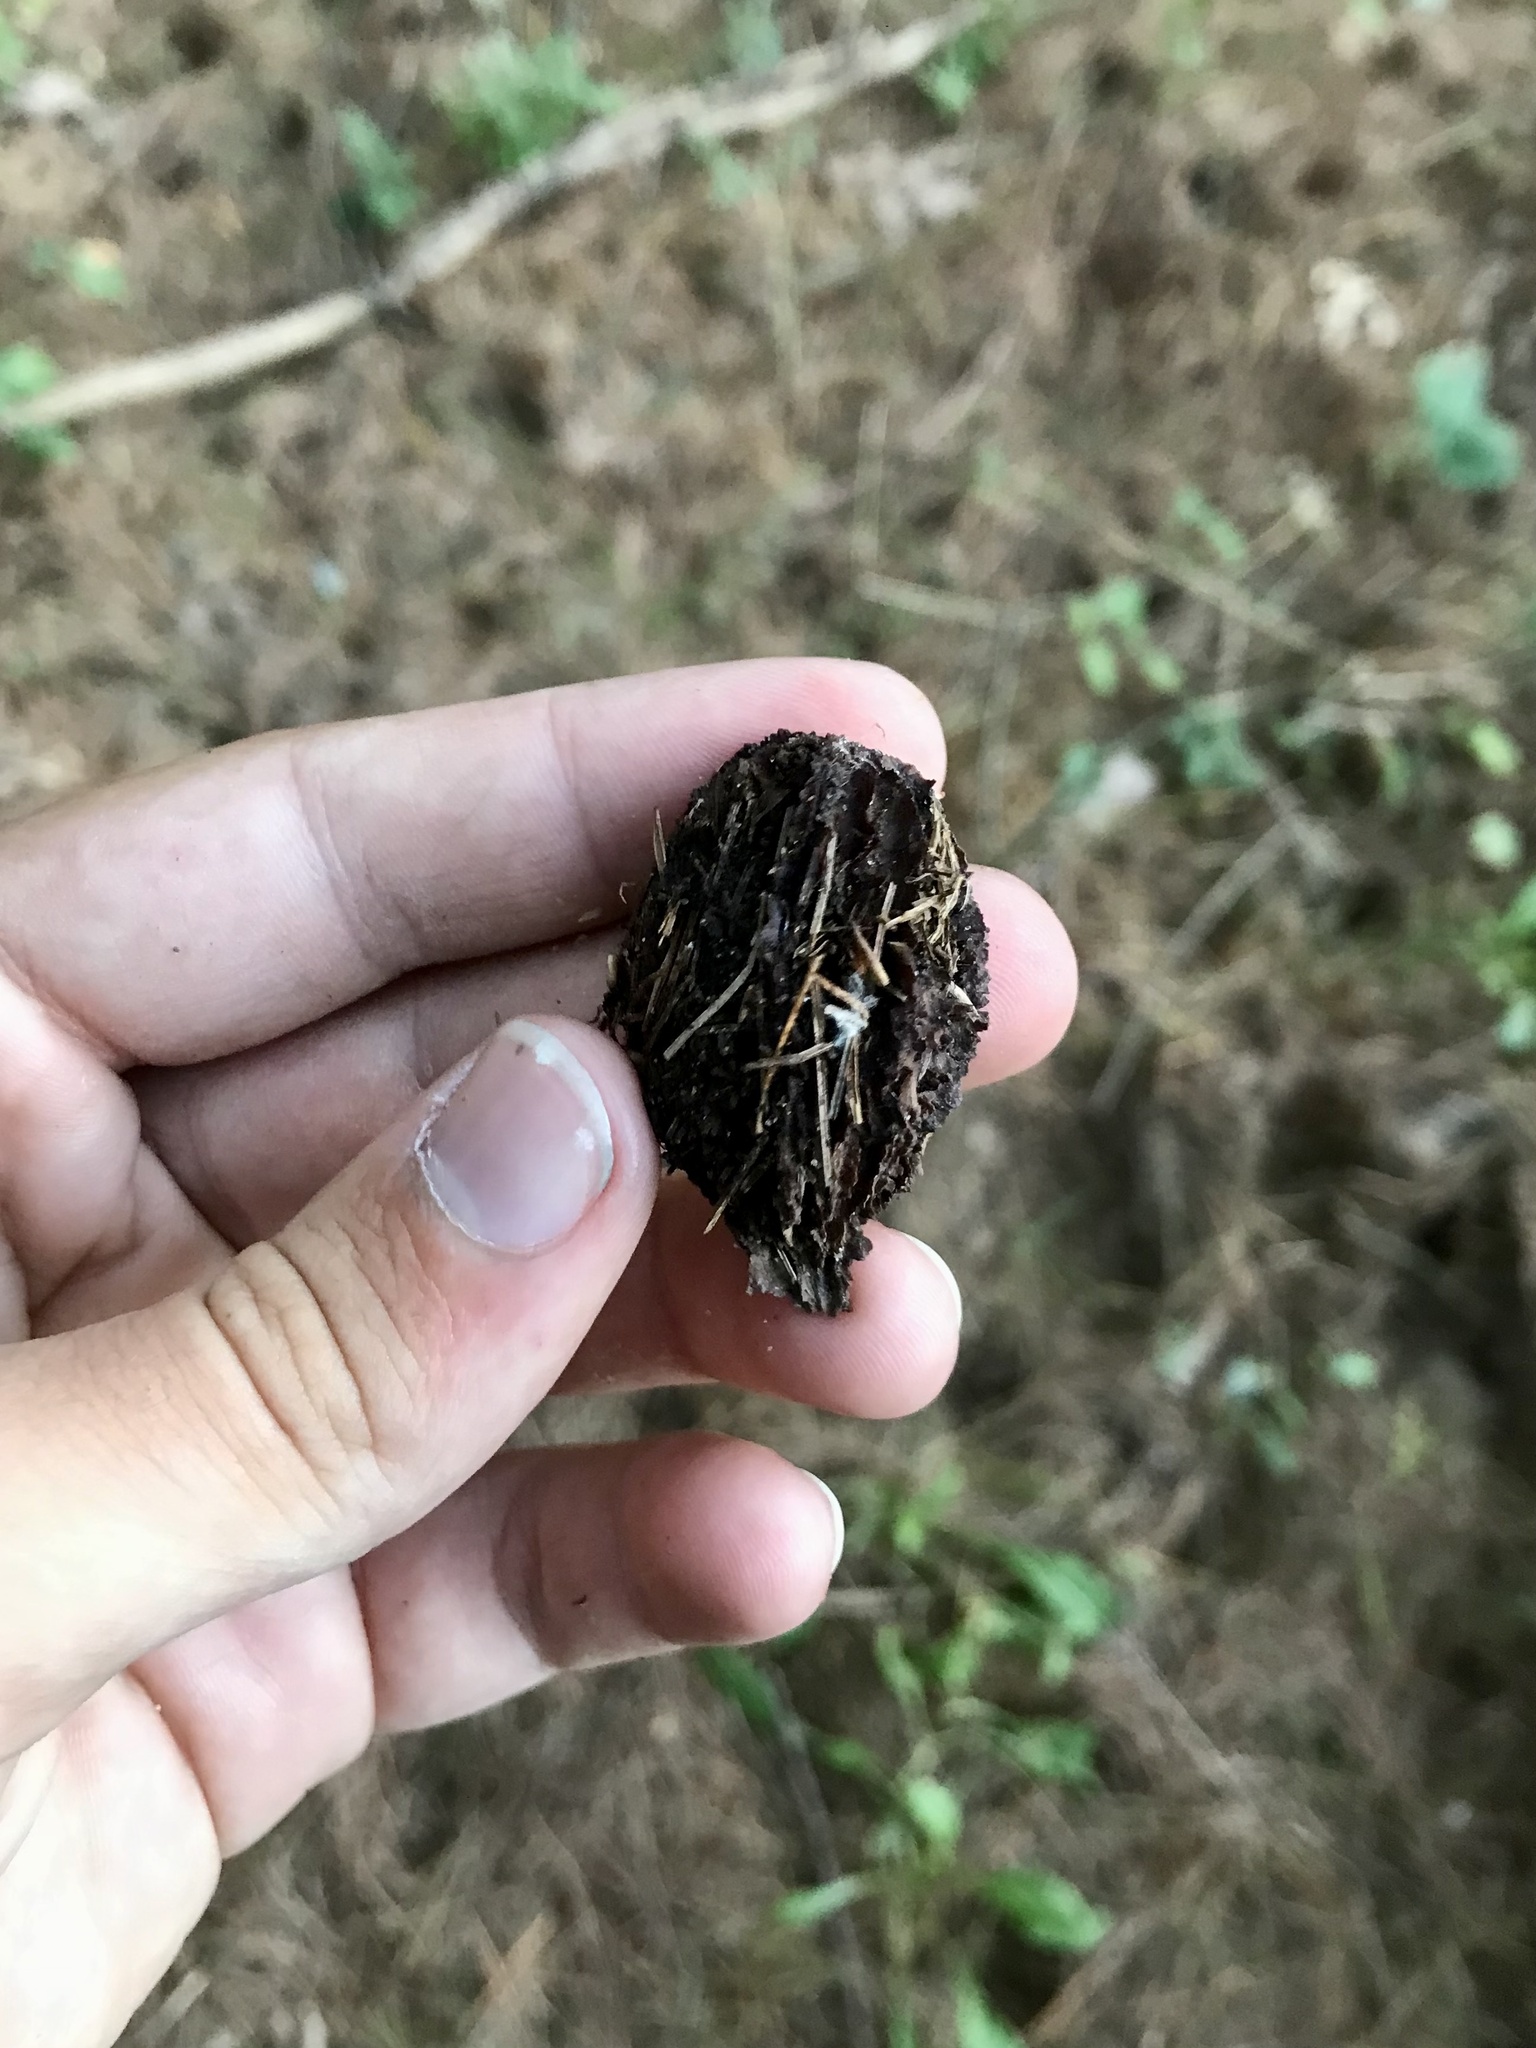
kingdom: Plantae
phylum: Tracheophyta
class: Magnoliopsida
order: Fagales
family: Juglandaceae
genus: Juglans
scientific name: Juglans cinerea
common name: Butternut
